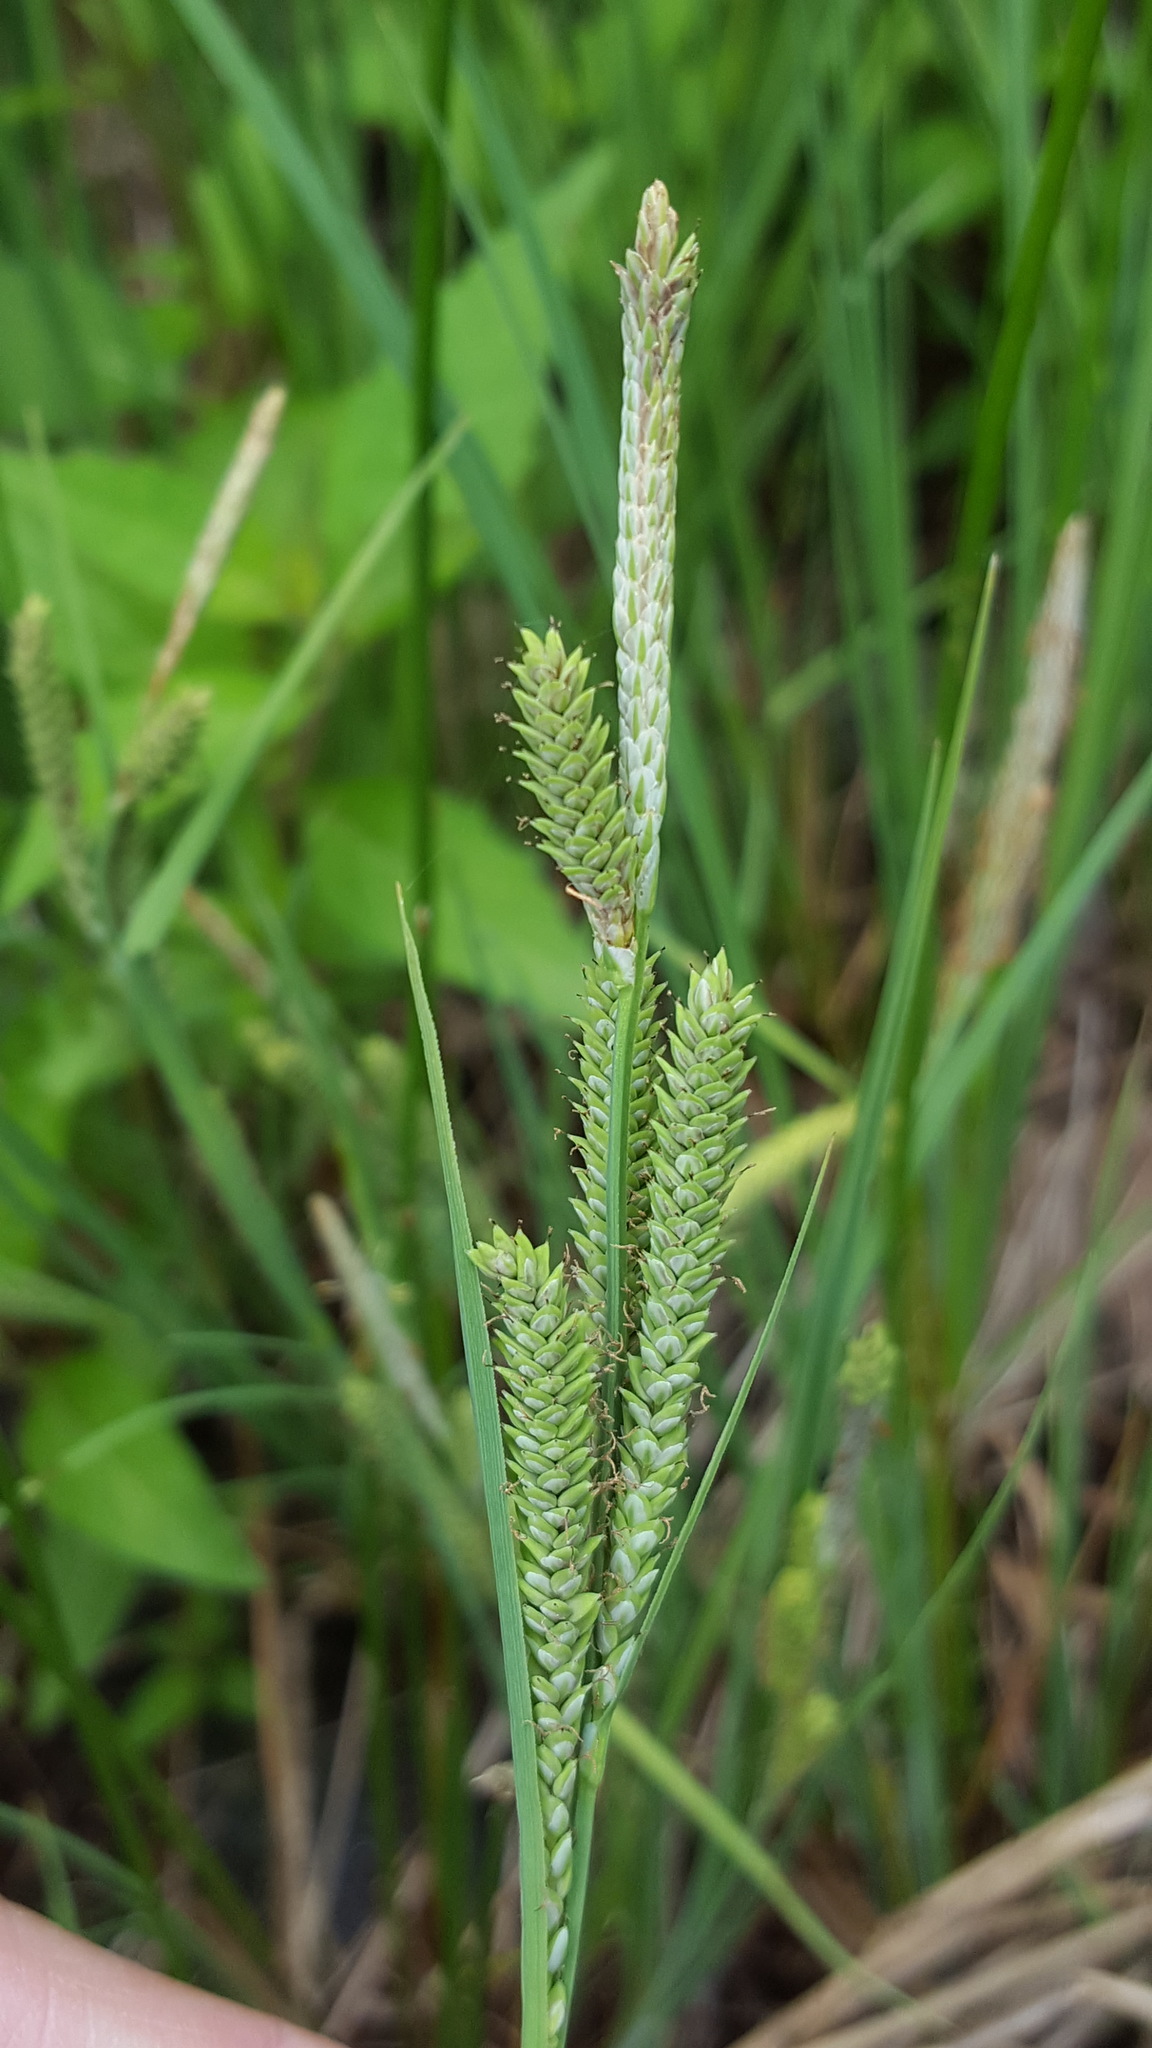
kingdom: Plantae
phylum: Tracheophyta
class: Liliopsida
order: Poales
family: Cyperaceae
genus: Carex
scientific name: Carex lenticularis
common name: Lakeshore sedge
